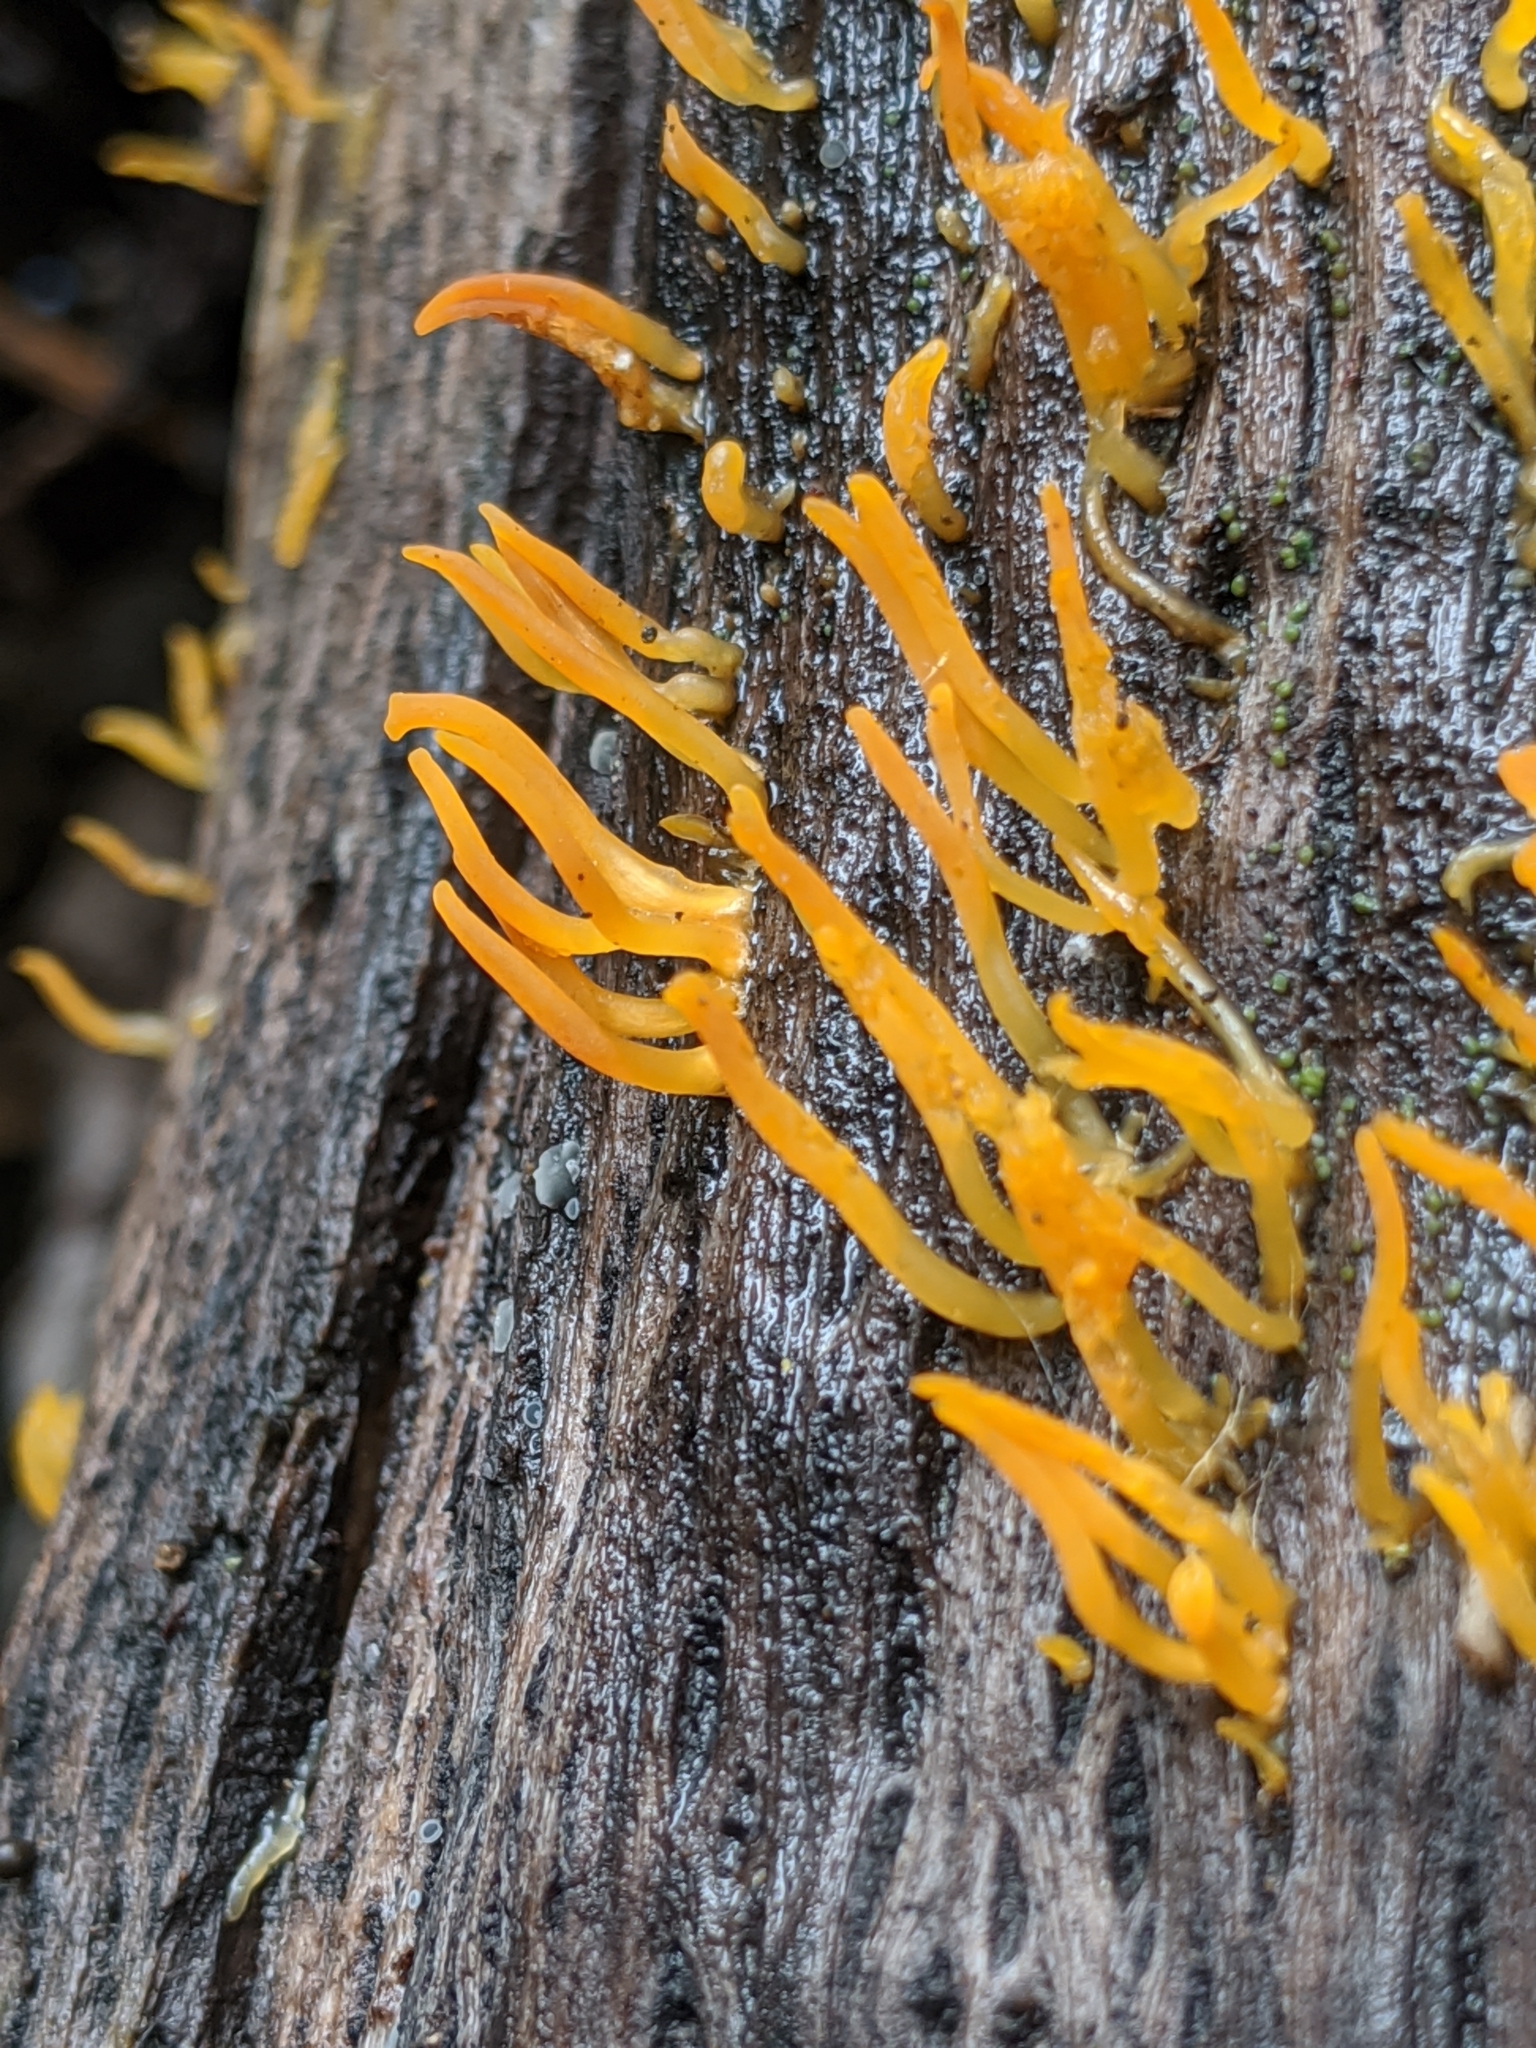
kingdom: Fungi
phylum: Basidiomycota
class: Dacrymycetes
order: Dacrymycetales
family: Dacrymycetaceae
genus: Calocera
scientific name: Calocera cornea
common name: Small stagshorn
